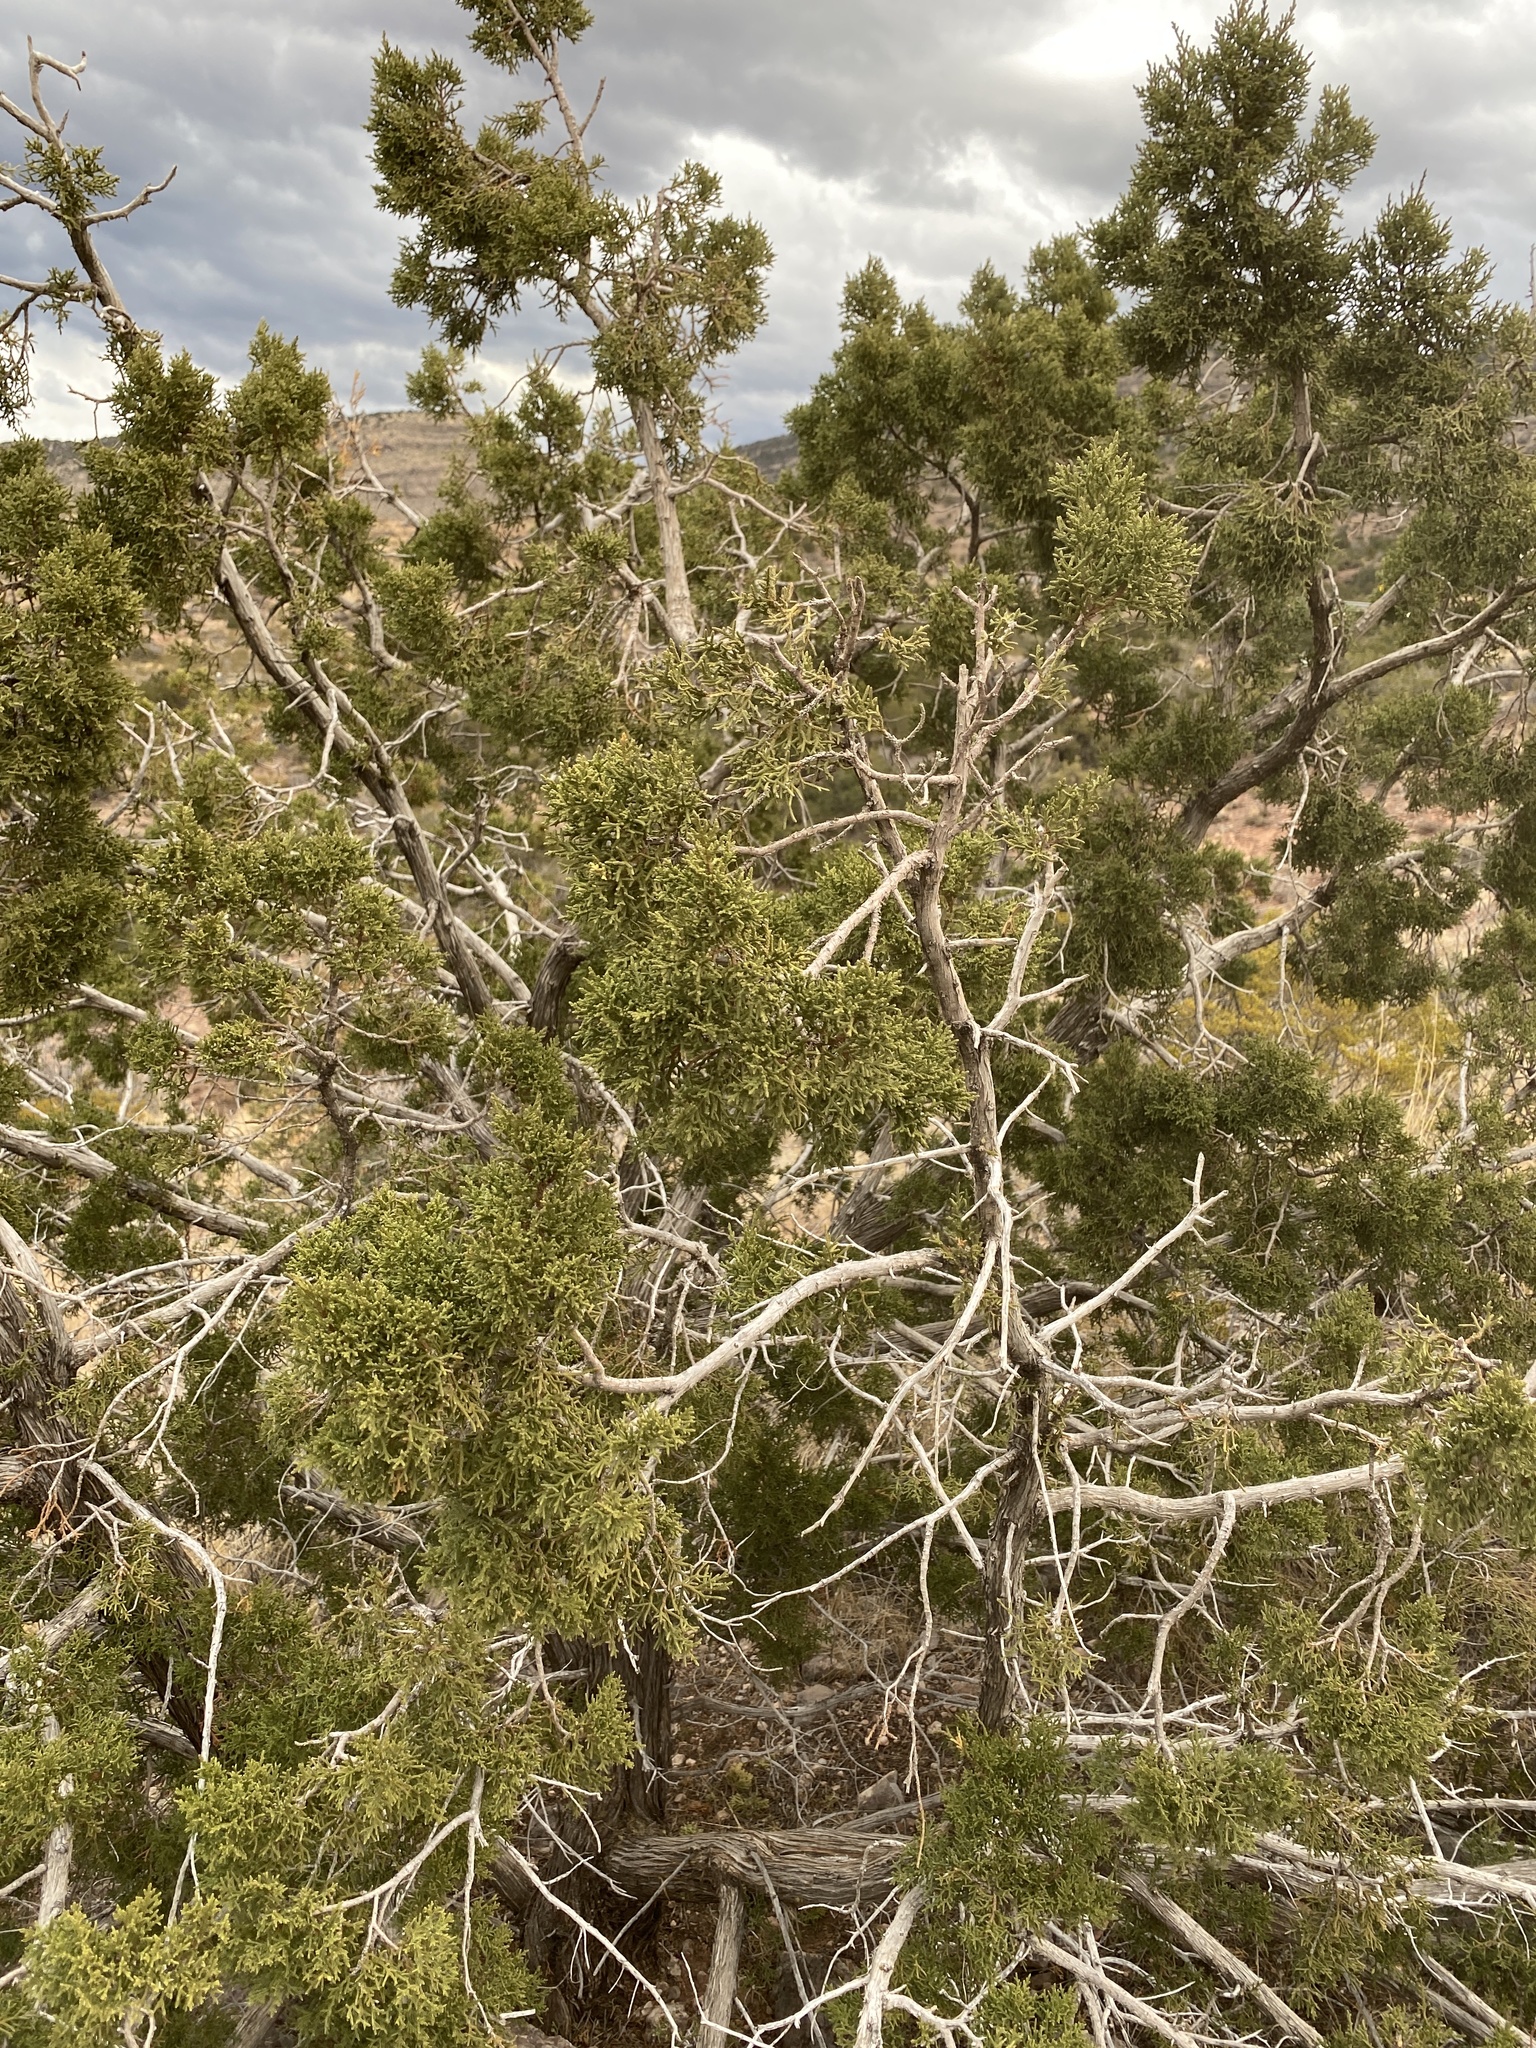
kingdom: Plantae
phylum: Tracheophyta
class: Pinopsida
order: Pinales
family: Cupressaceae
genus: Juniperus
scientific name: Juniperus monosperma
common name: One-seed juniper
